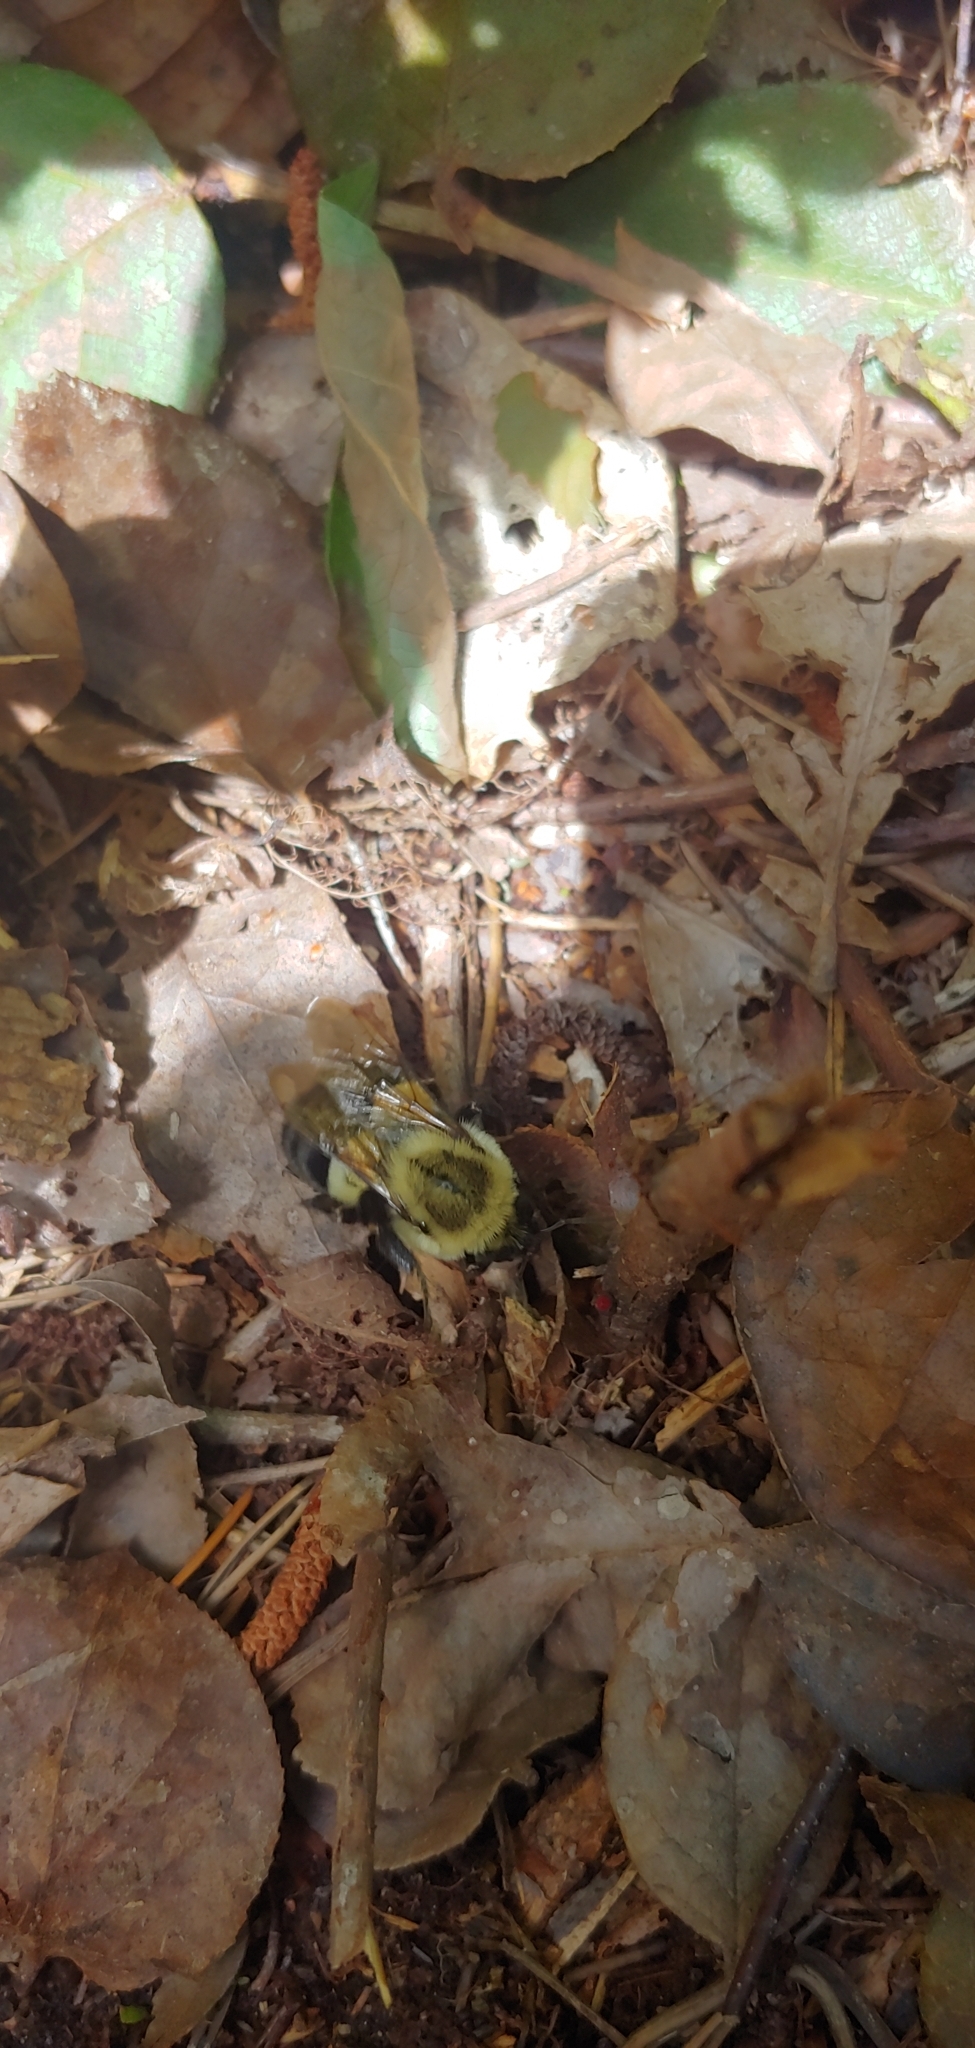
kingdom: Animalia
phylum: Arthropoda
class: Insecta
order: Hymenoptera
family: Apidae
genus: Bombus
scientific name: Bombus impatiens
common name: Common eastern bumble bee
